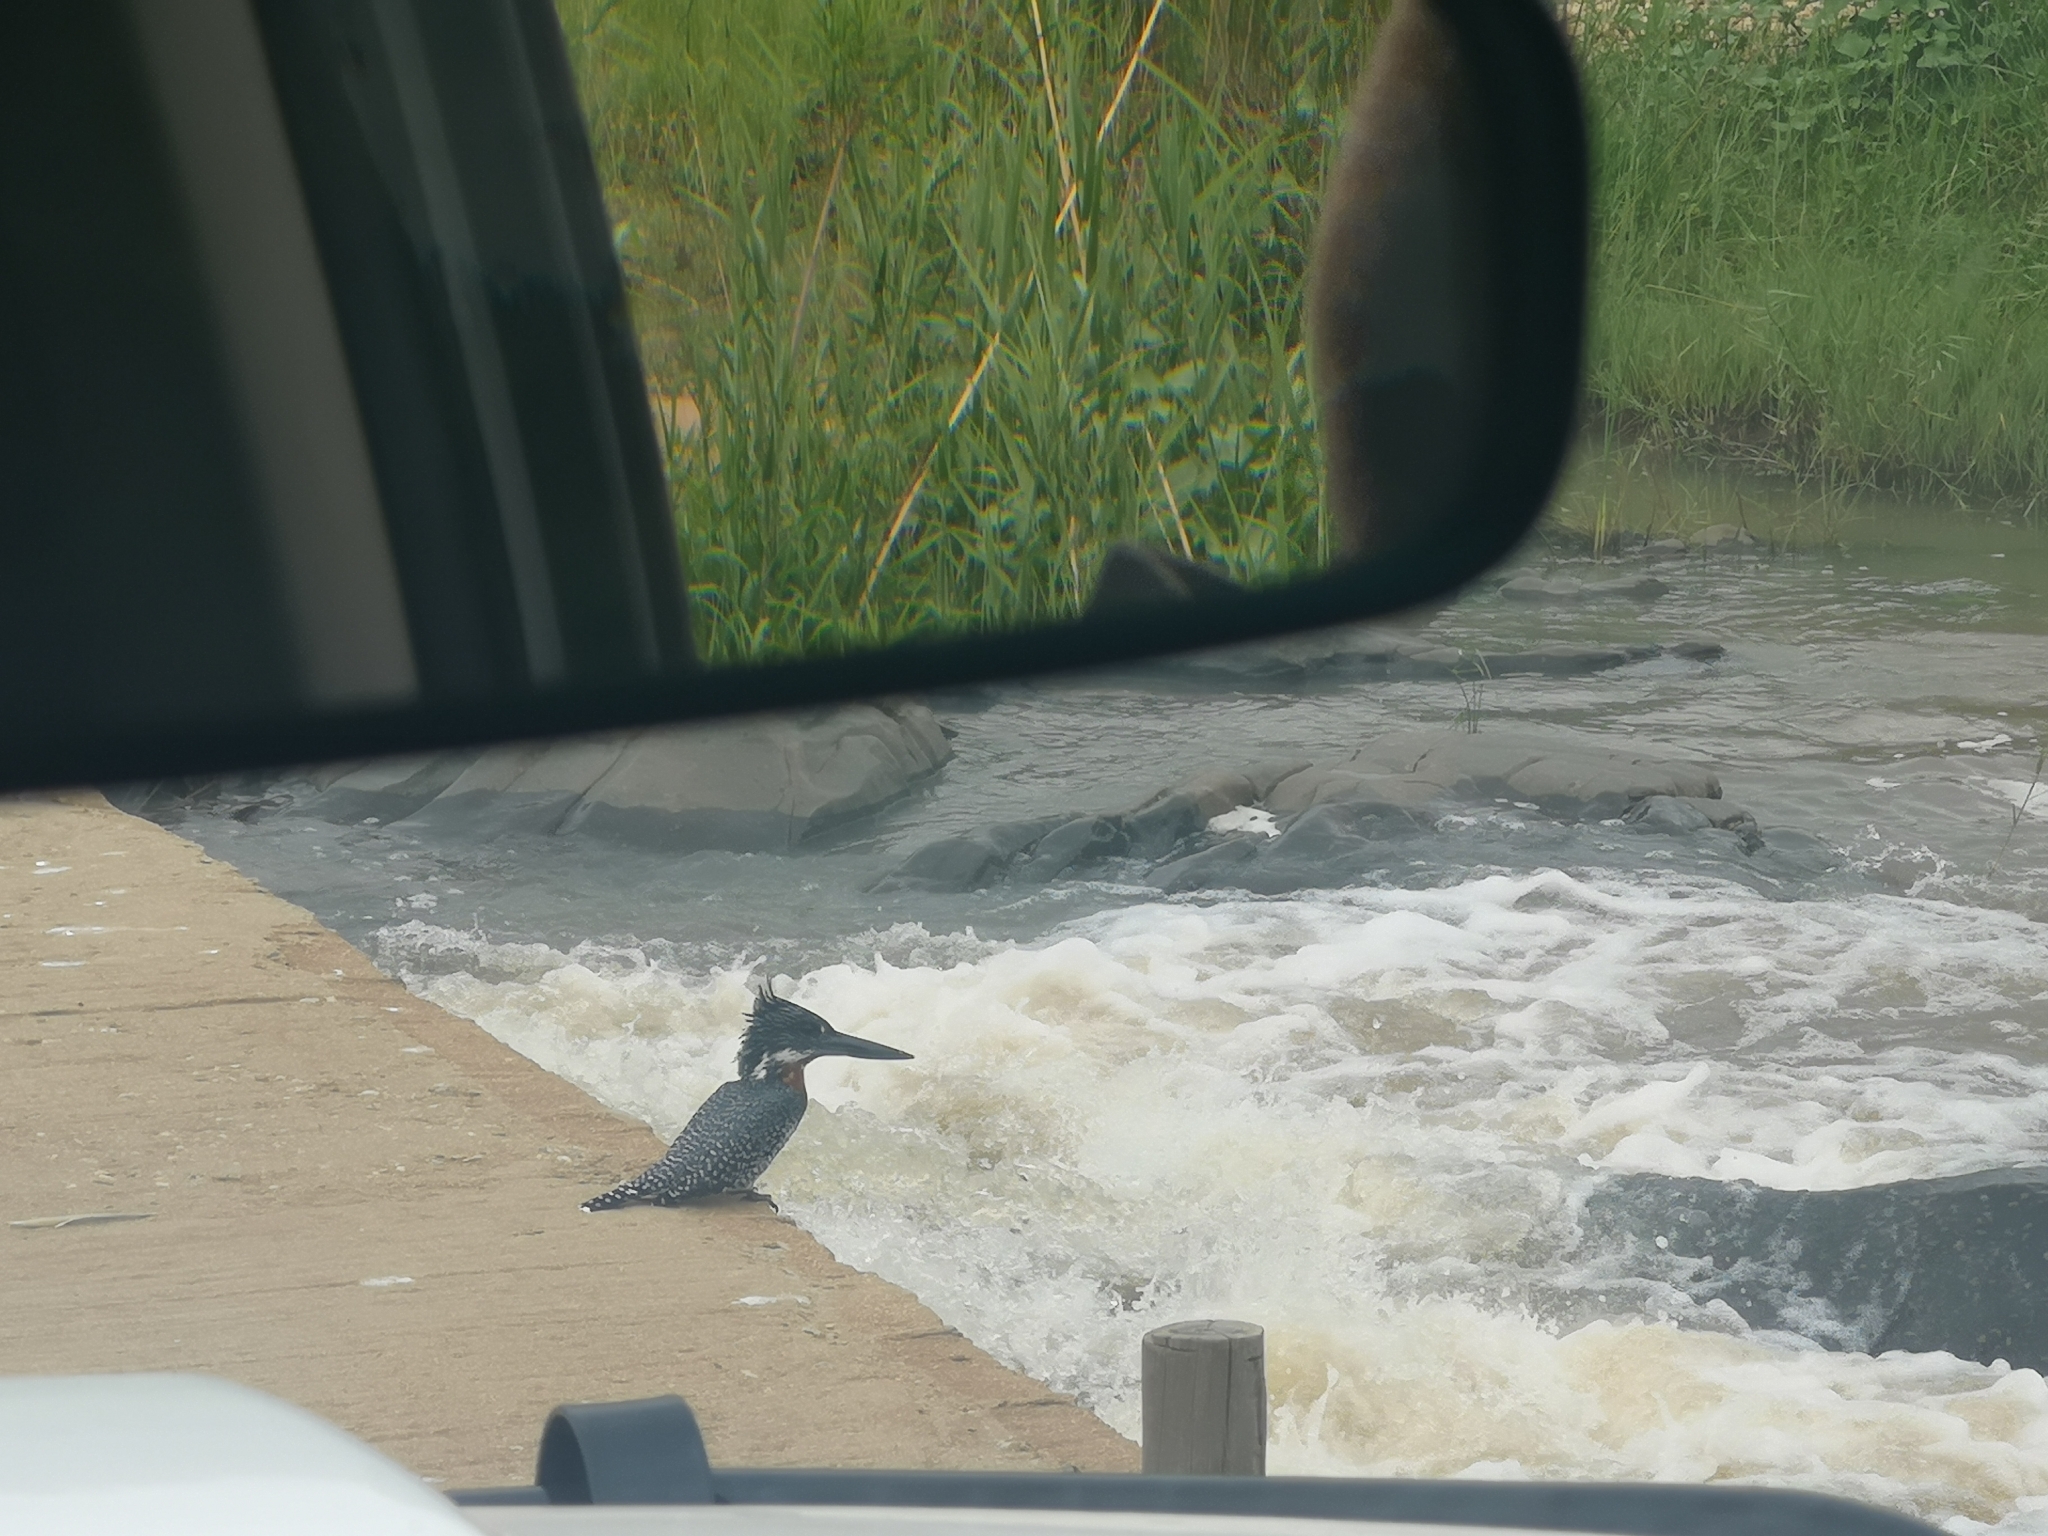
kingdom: Animalia
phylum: Chordata
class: Aves
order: Coraciiformes
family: Alcedinidae
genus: Megaceryle
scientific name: Megaceryle maxima
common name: Giant kingfisher
